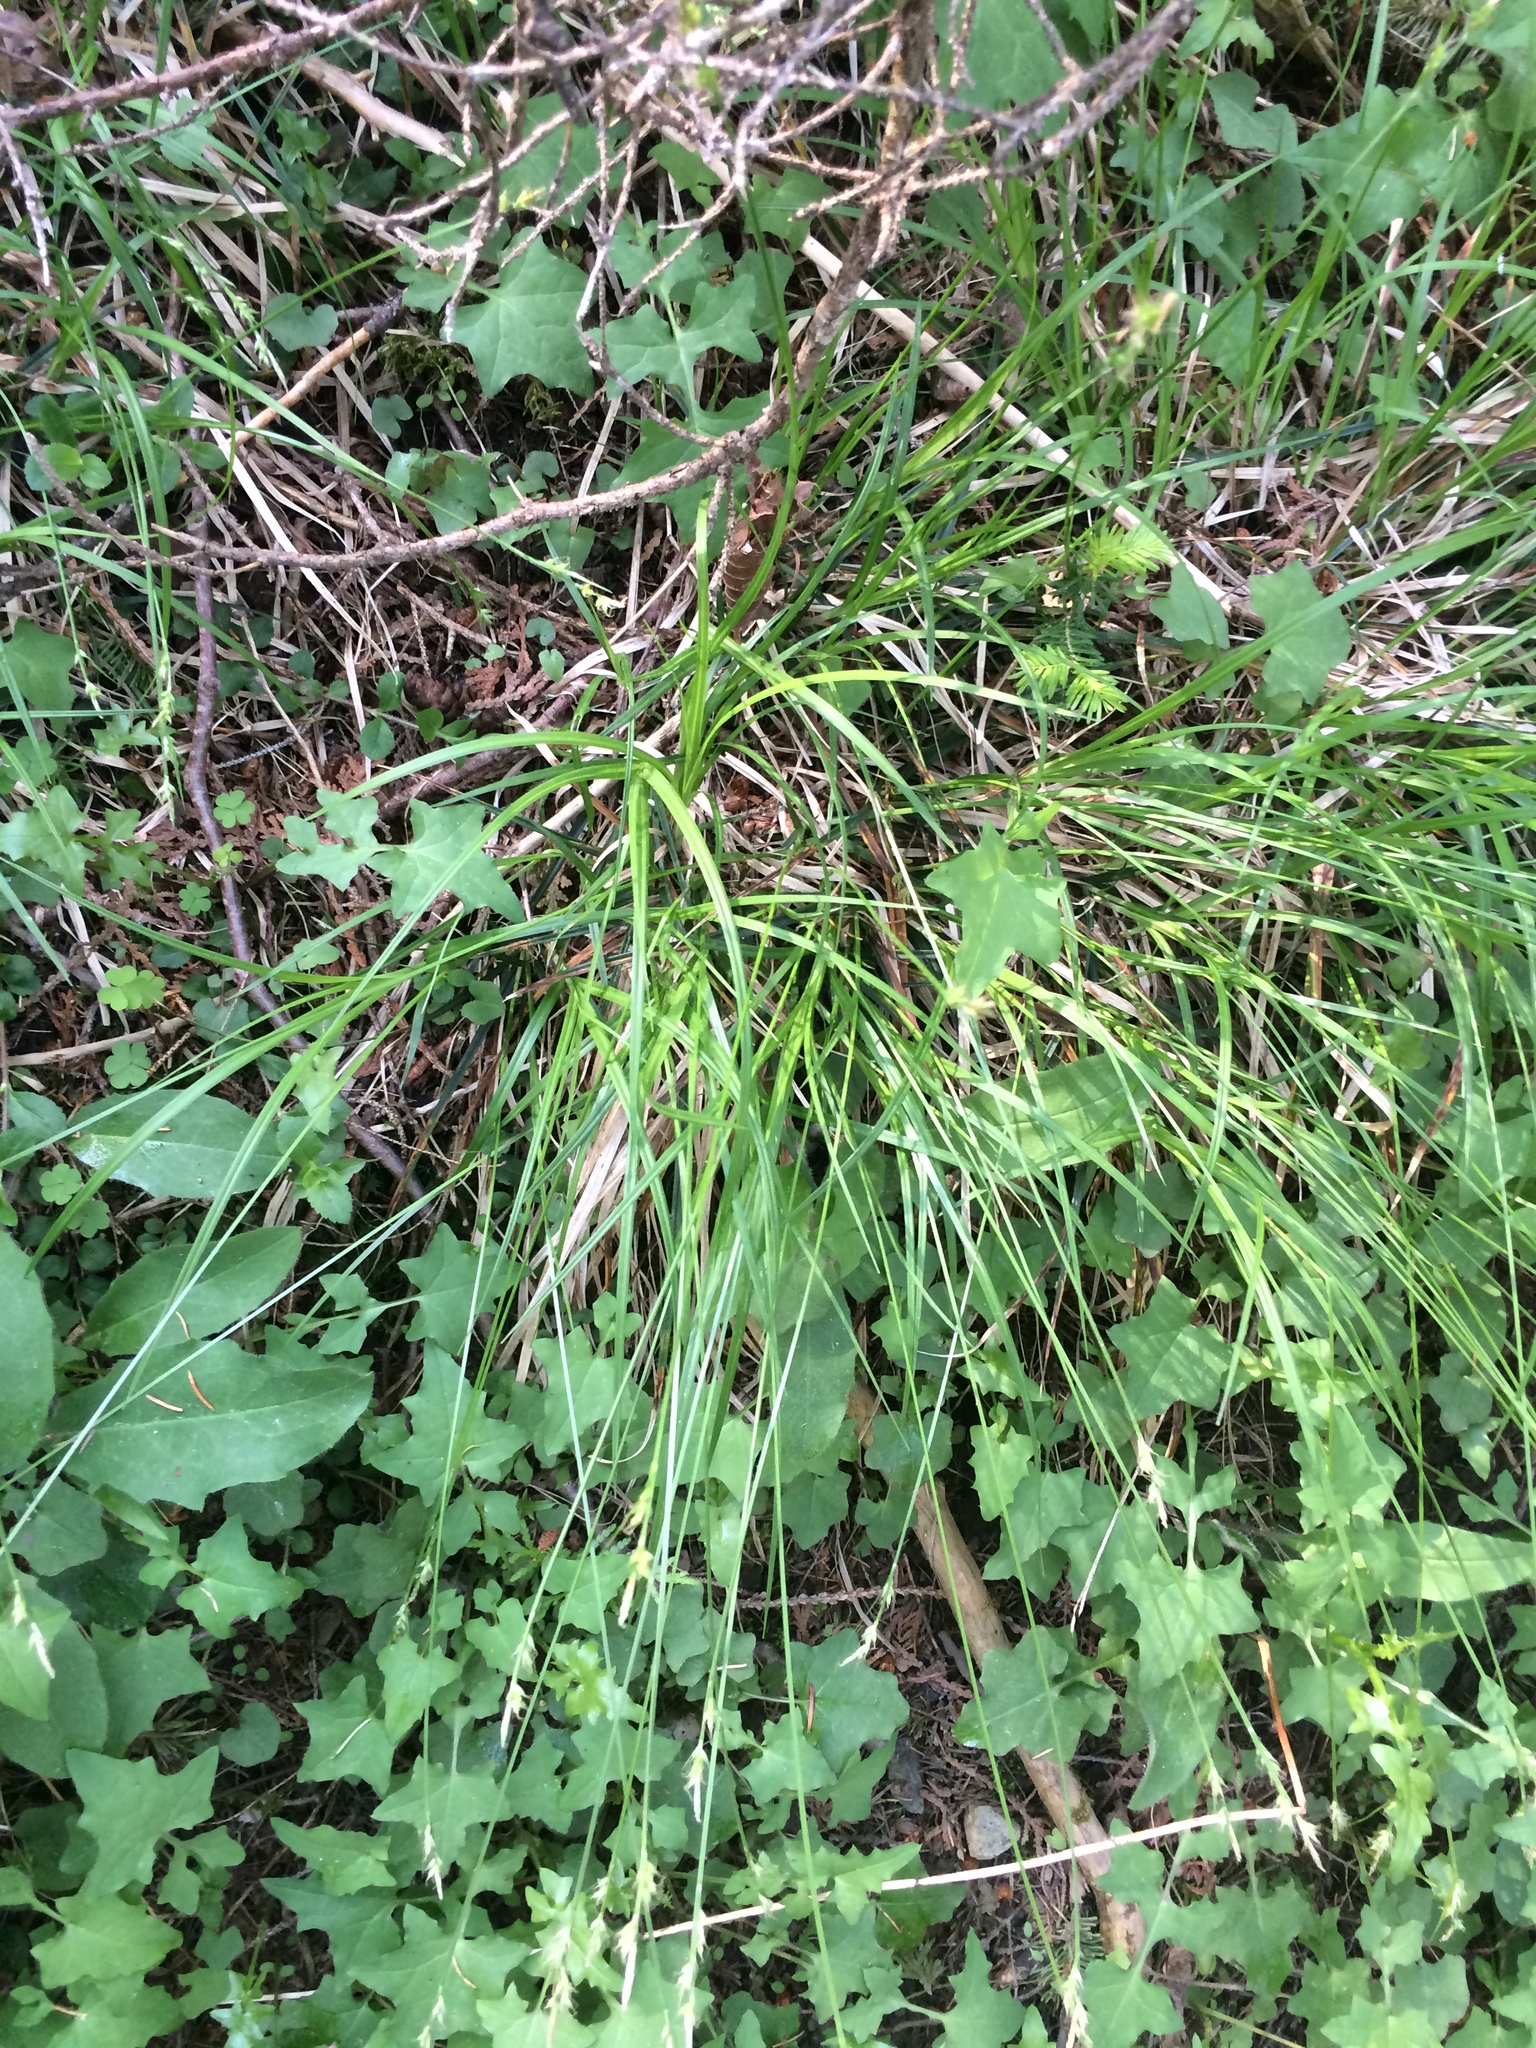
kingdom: Plantae
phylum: Tracheophyta
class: Liliopsida
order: Poales
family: Cyperaceae
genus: Carex
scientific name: Carex communis
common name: Colonial oak sedge
